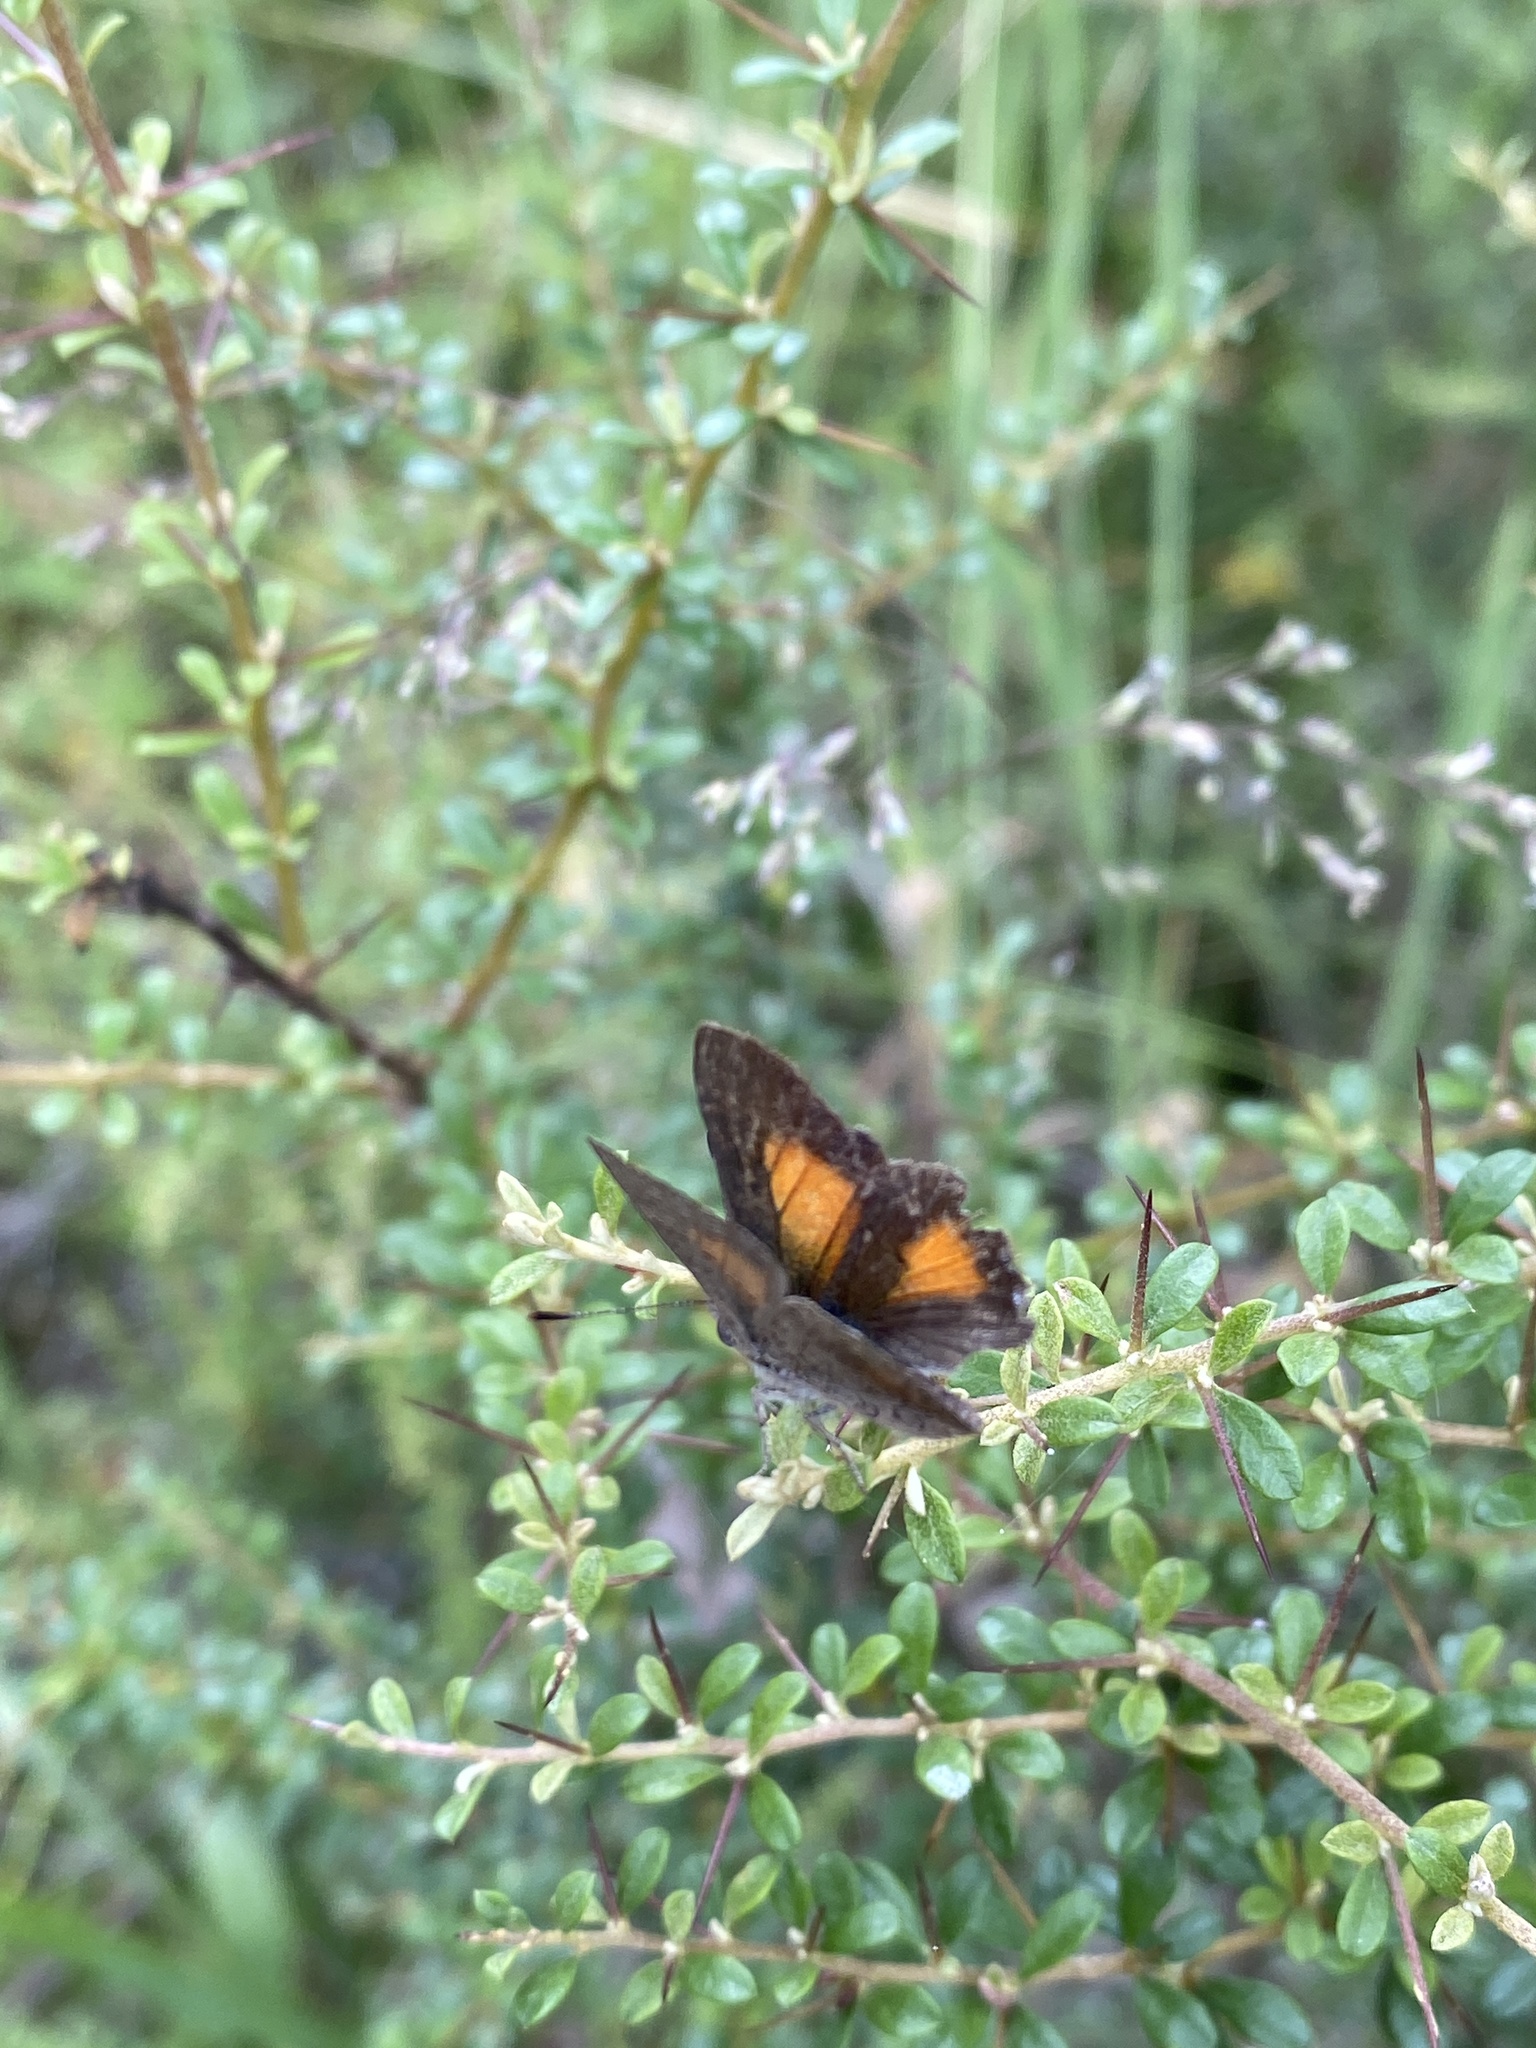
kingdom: Animalia
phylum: Arthropoda
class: Insecta
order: Lepidoptera
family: Lycaenidae
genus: Paralucia
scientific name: Paralucia aurifer
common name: Bright copper
